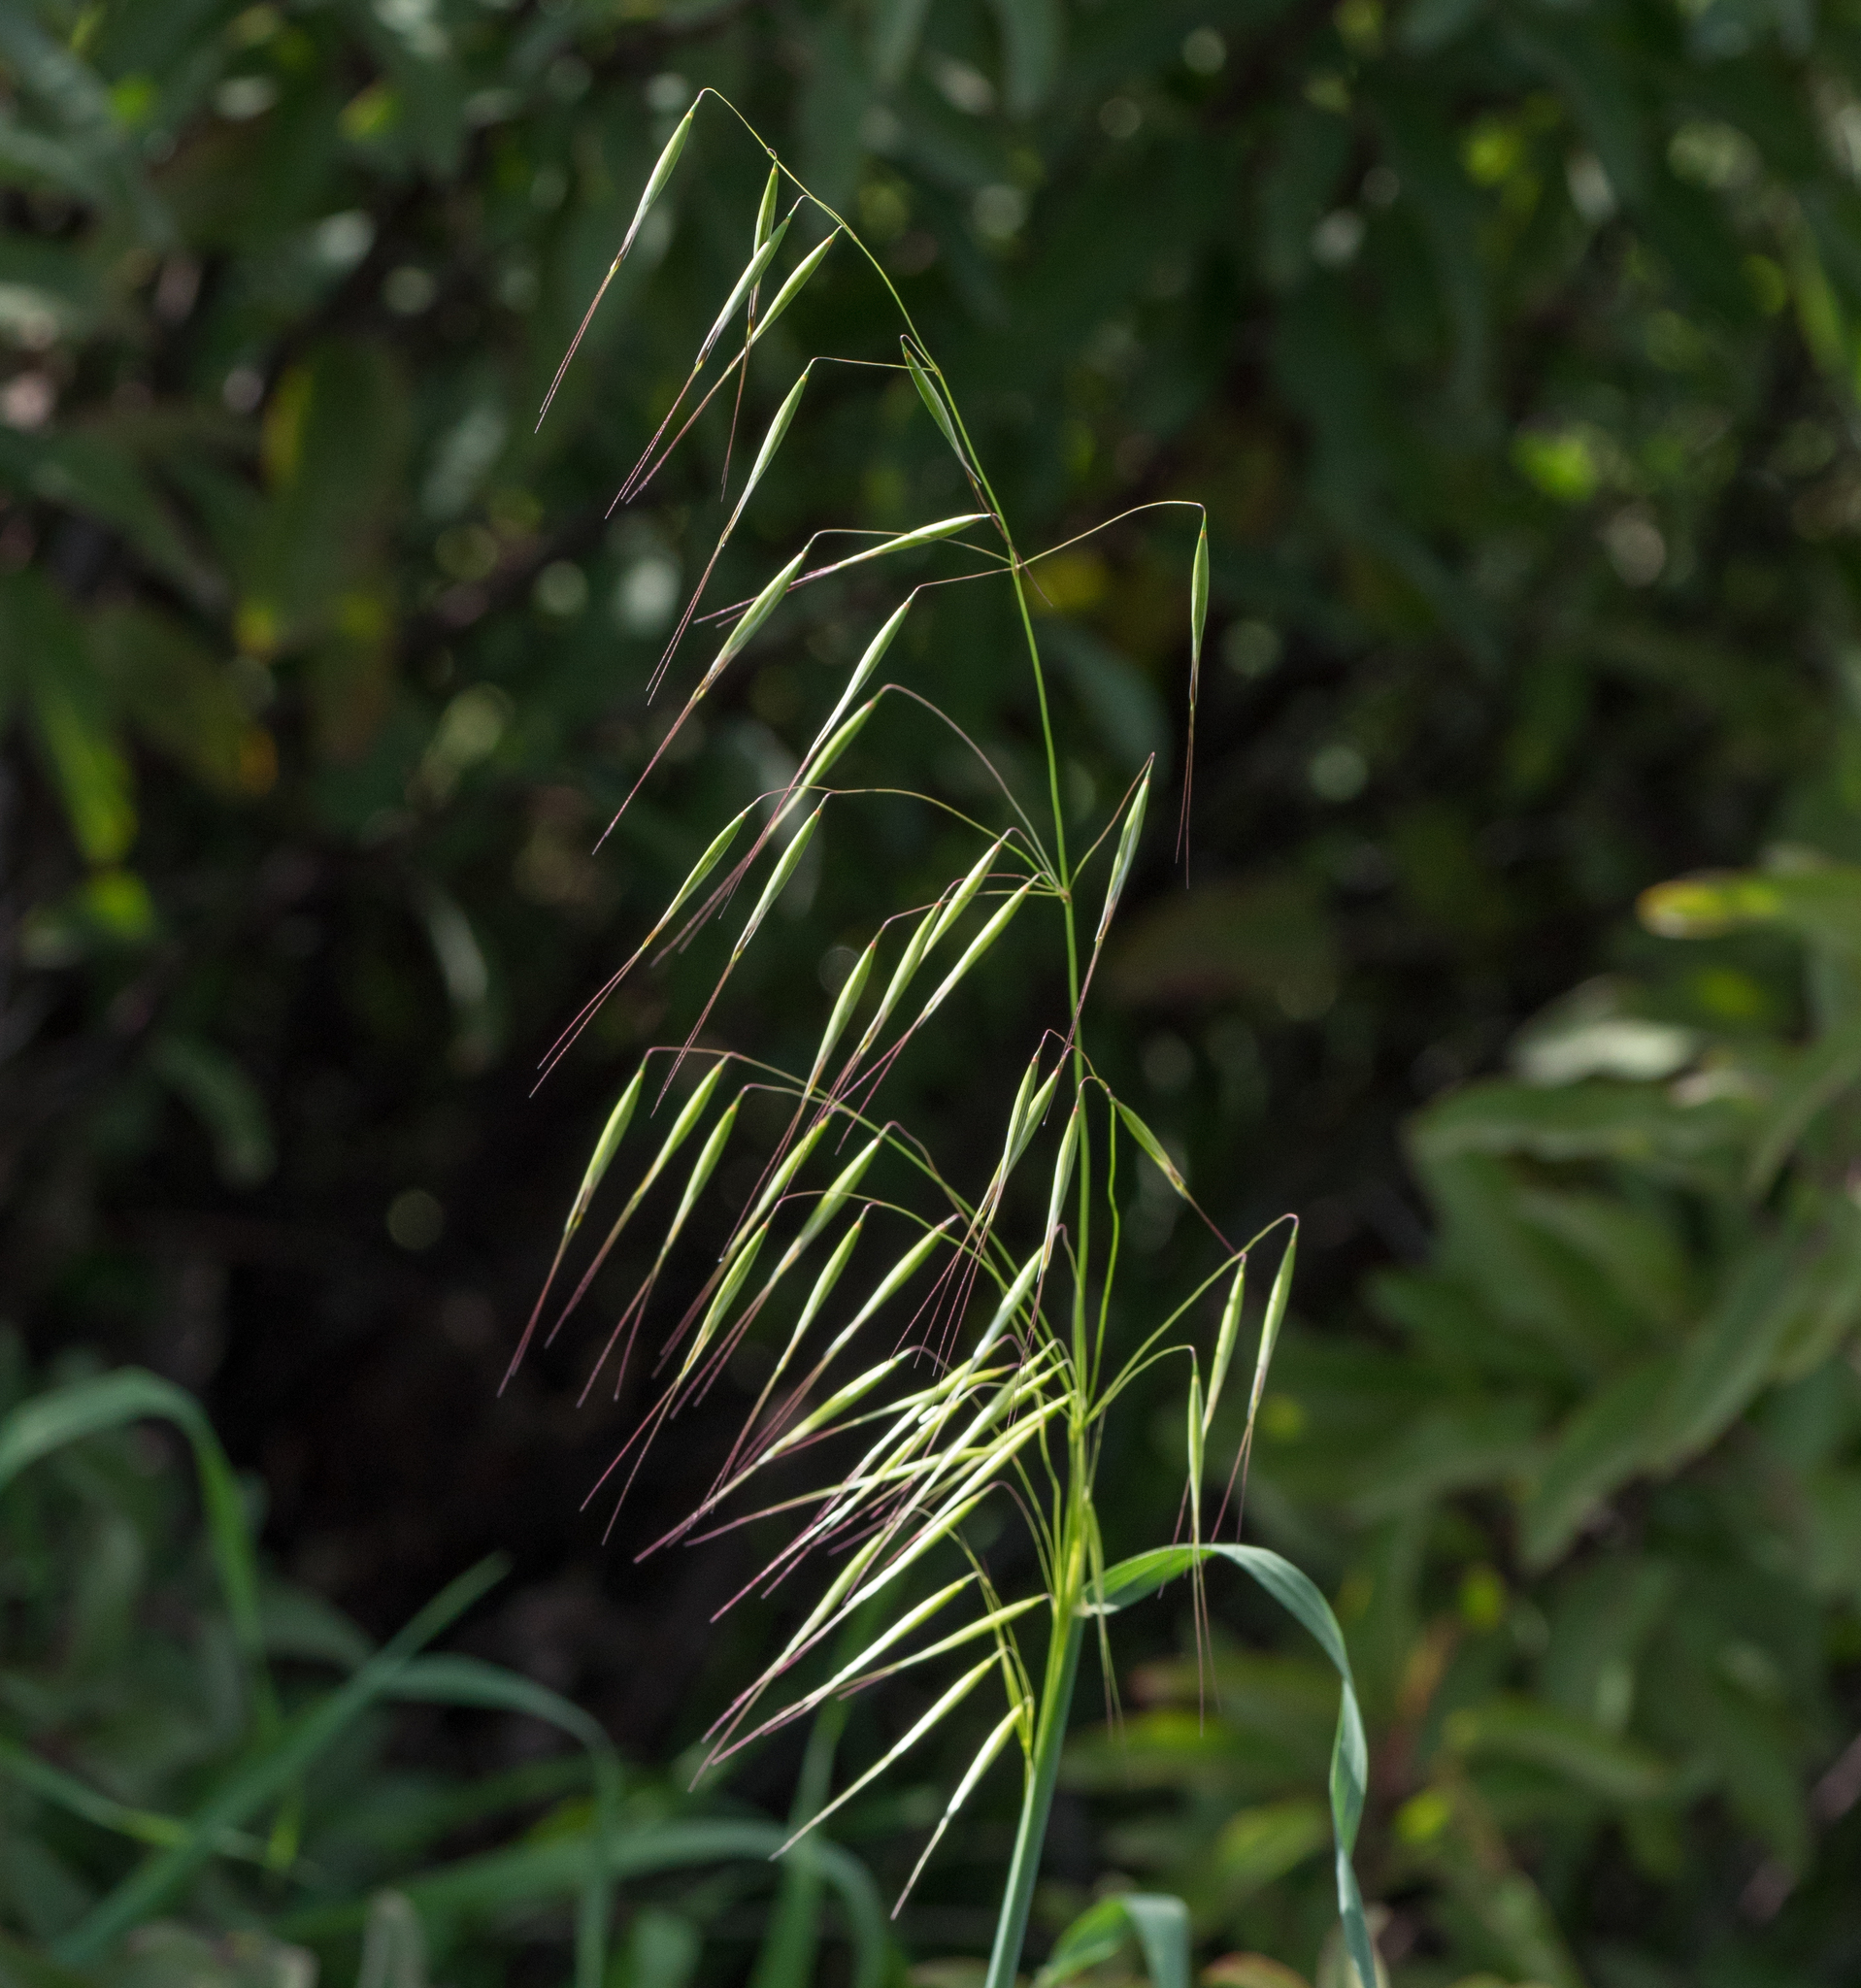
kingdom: Plantae
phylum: Tracheophyta
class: Liliopsida
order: Poales
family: Poaceae
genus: Avena
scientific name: Avena barbata
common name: Slender oat
